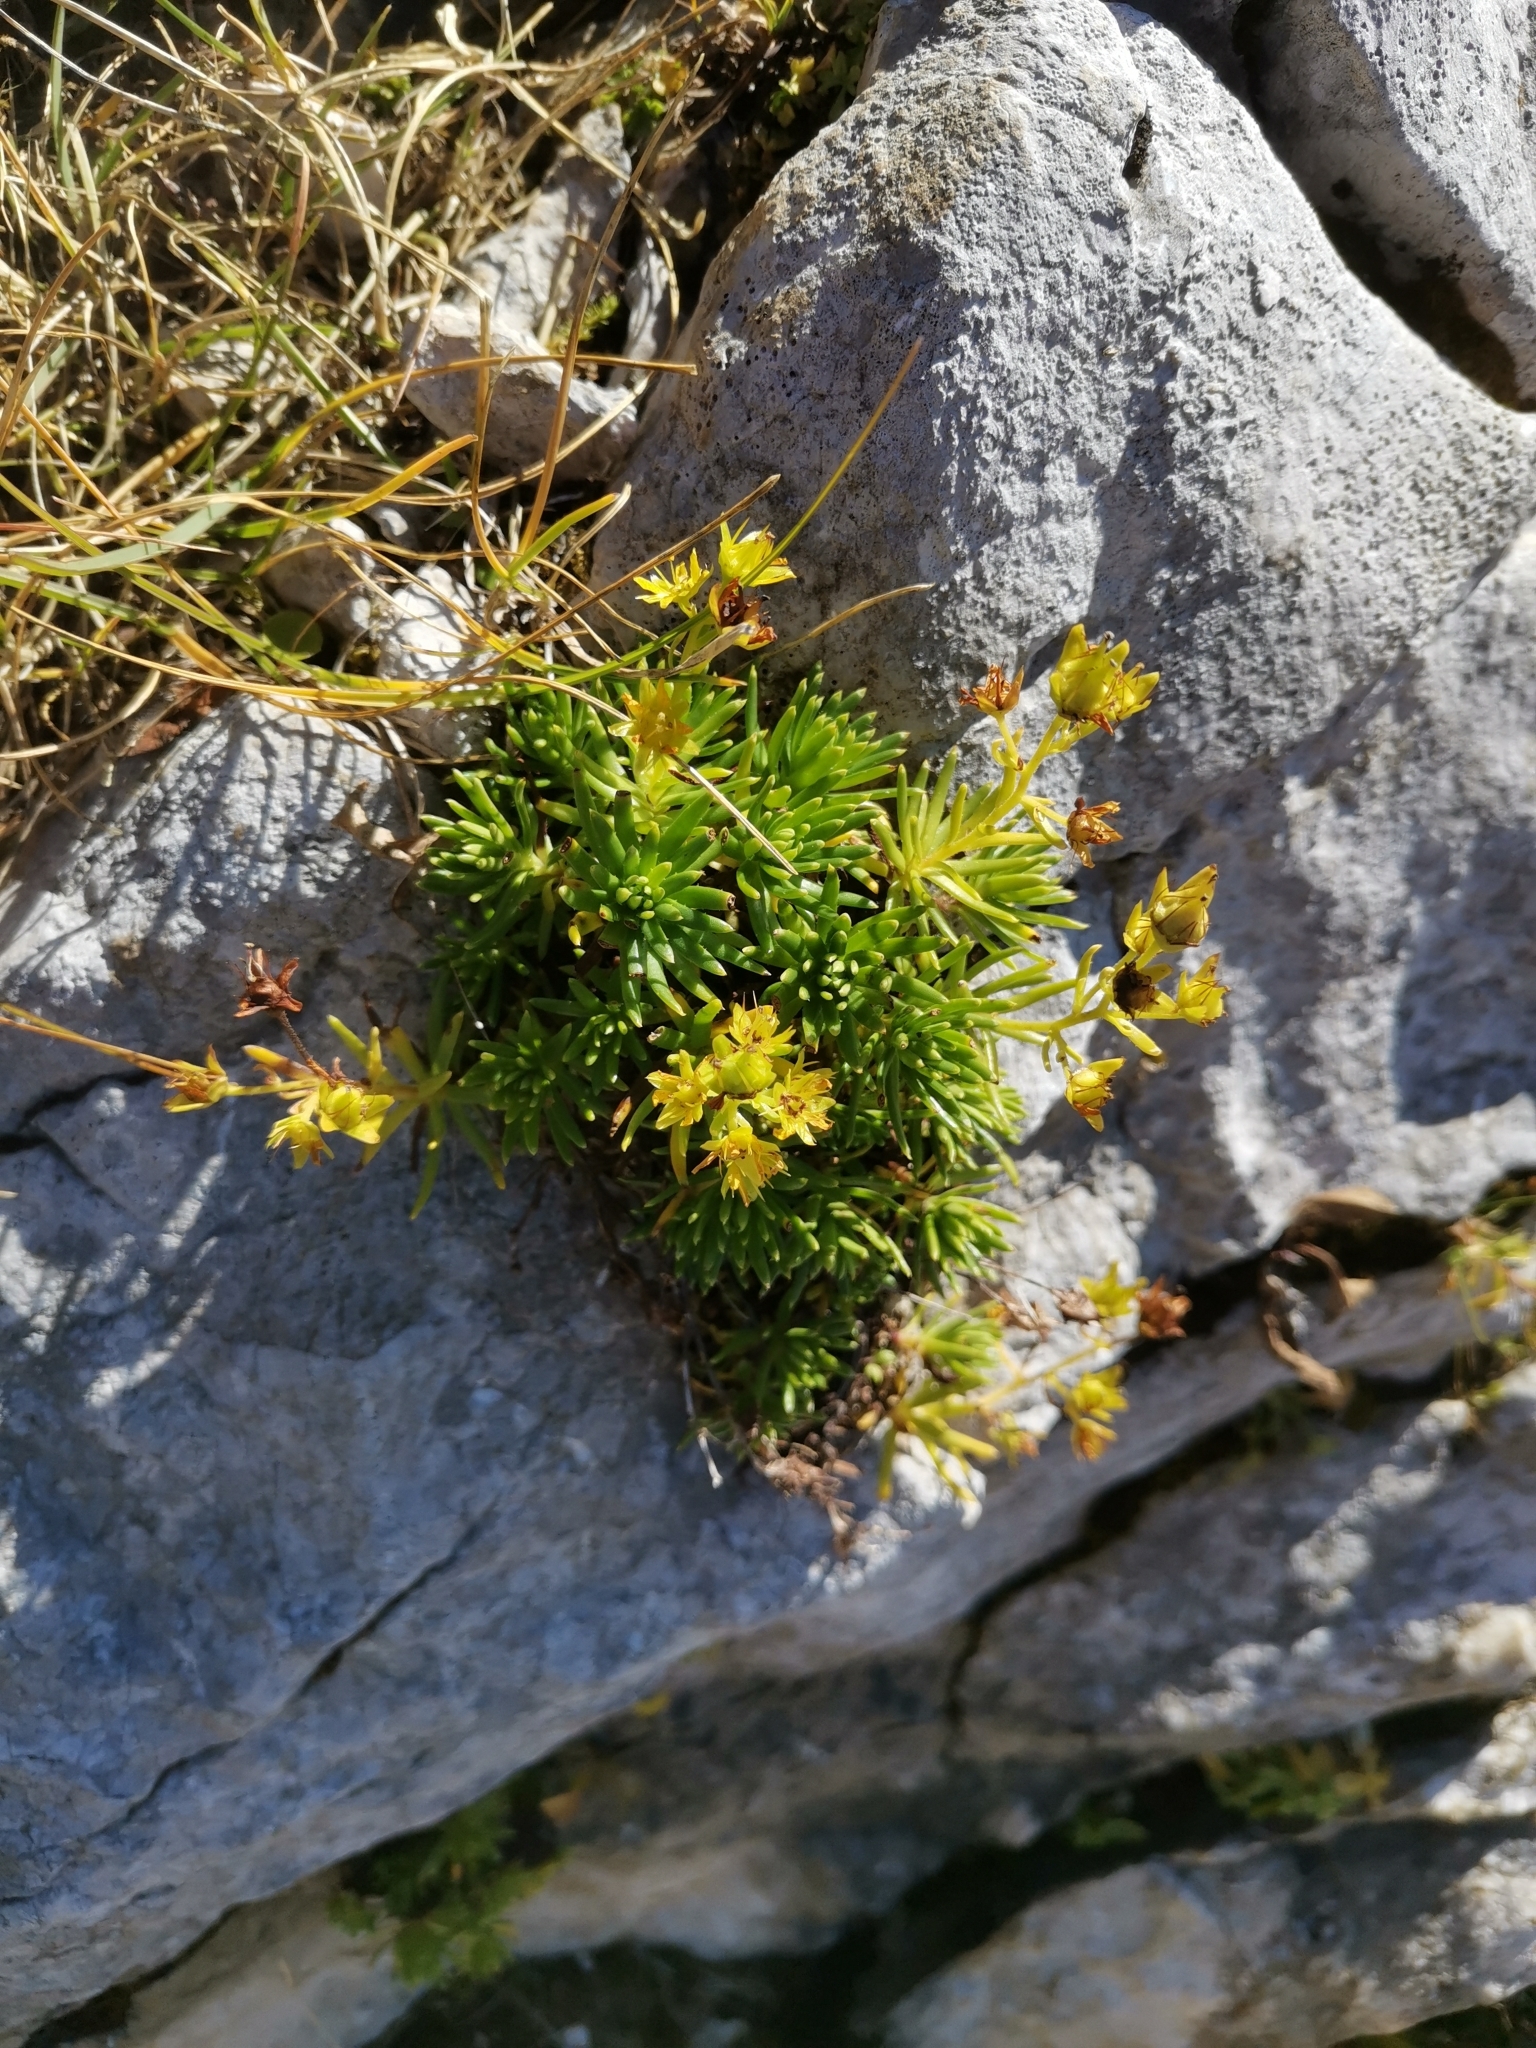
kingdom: Plantae
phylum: Tracheophyta
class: Magnoliopsida
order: Saxifragales
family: Saxifragaceae
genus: Saxifraga
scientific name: Saxifraga aizoides
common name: Yellow mountain saxifrage
